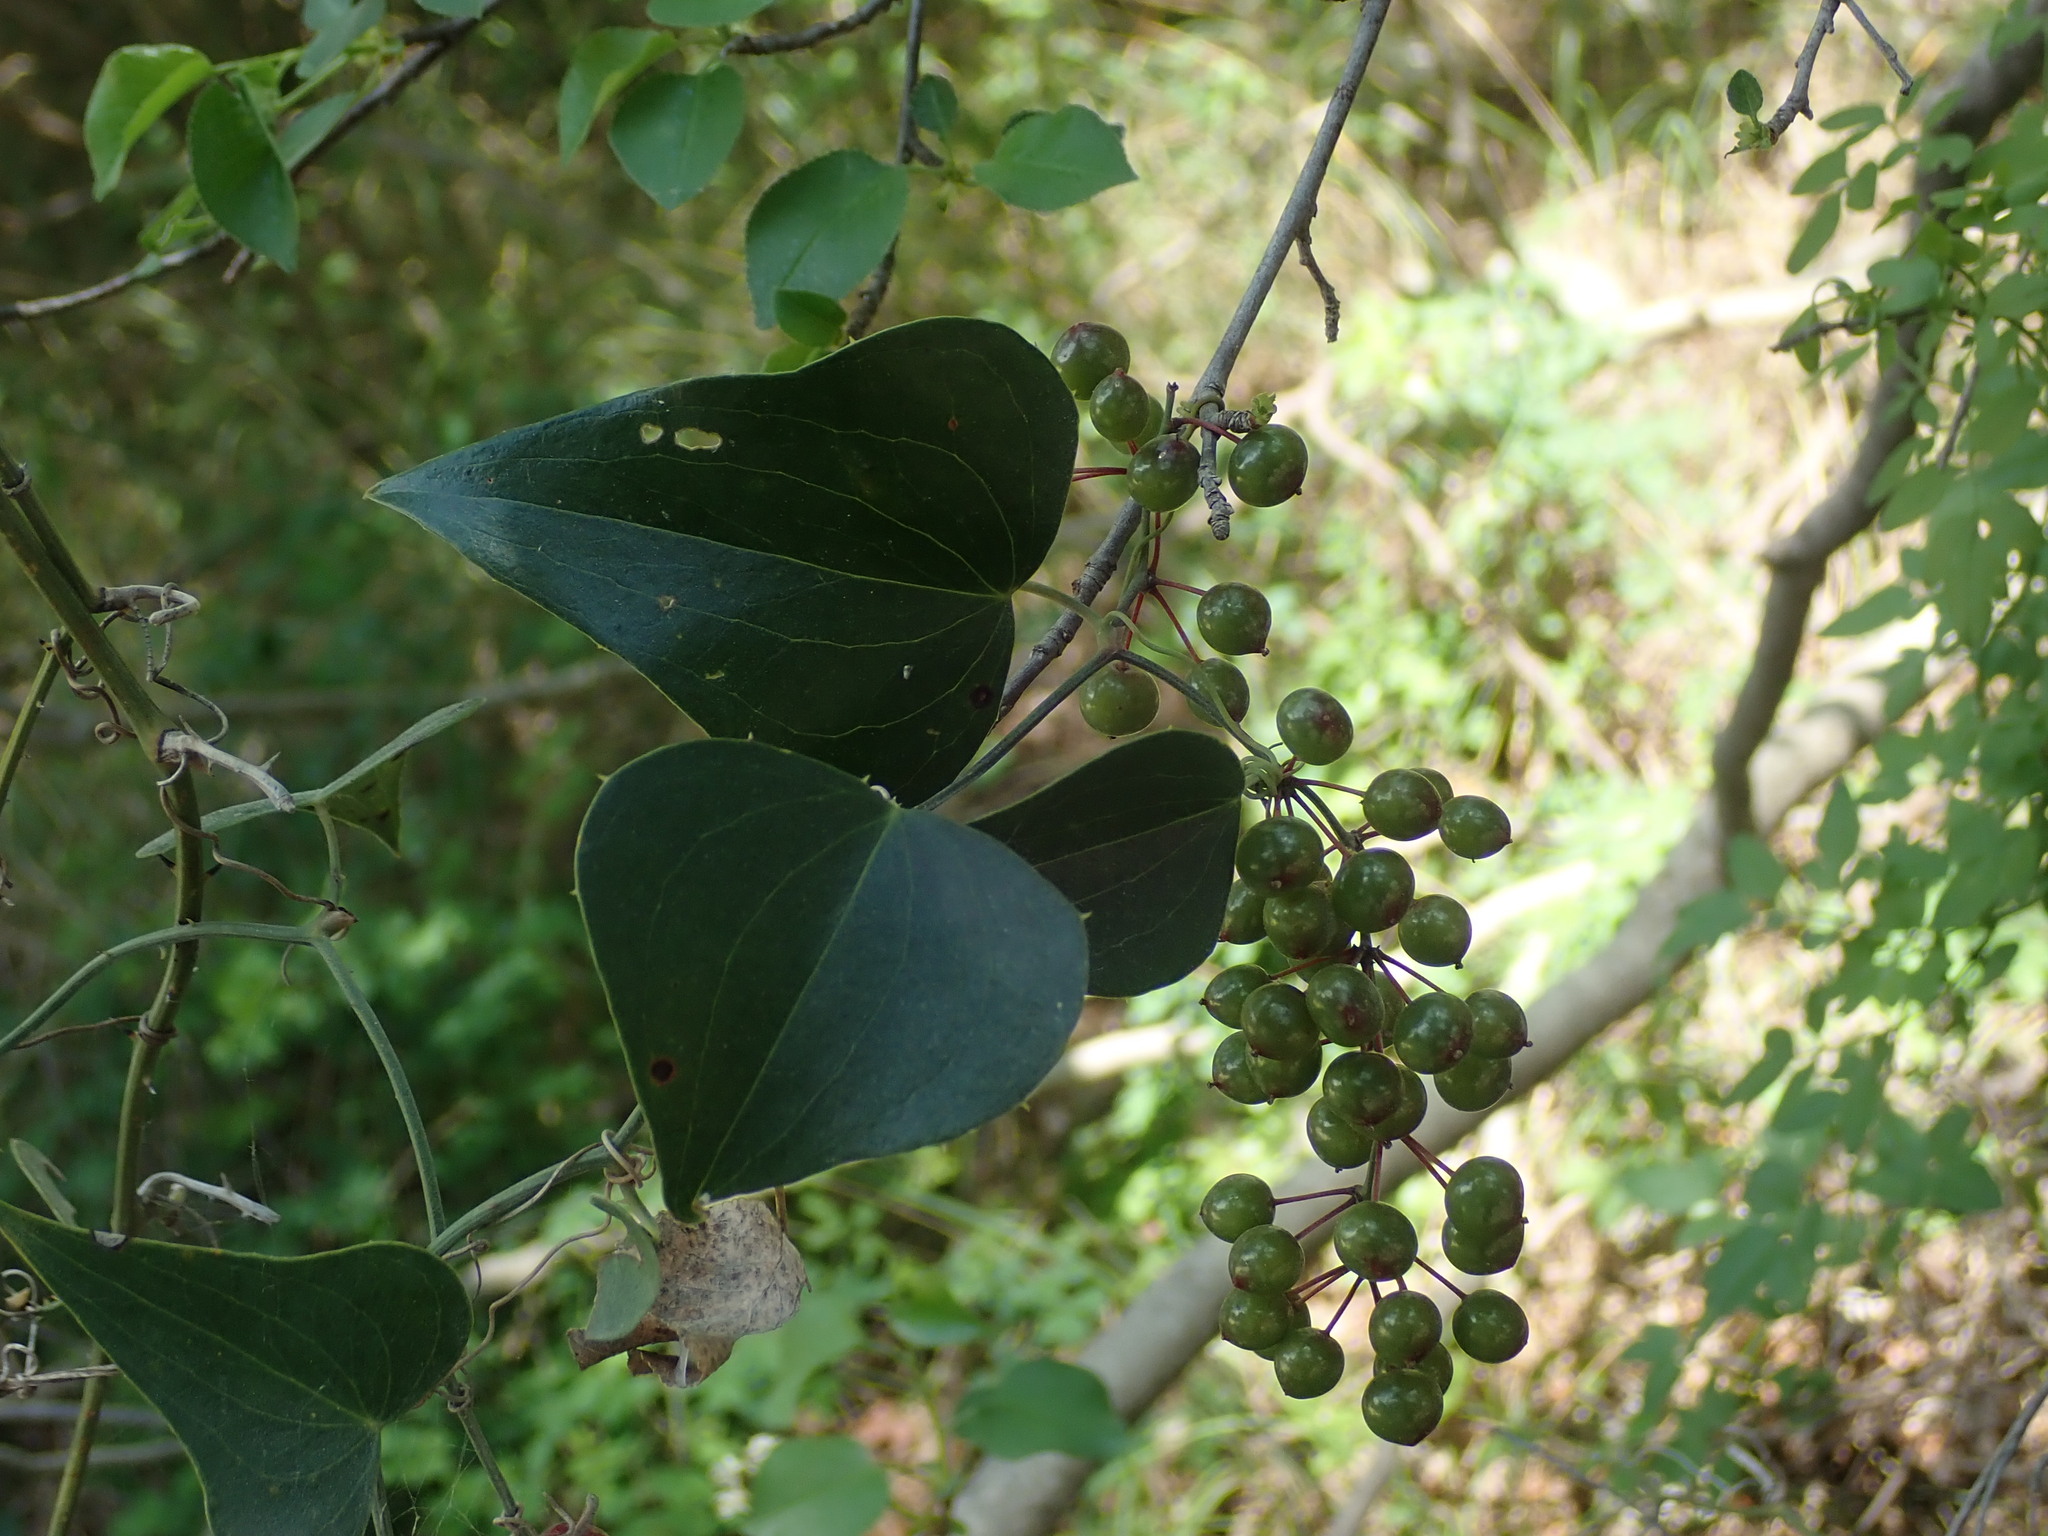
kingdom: Plantae
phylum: Tracheophyta
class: Liliopsida
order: Liliales
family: Smilacaceae
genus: Smilax
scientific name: Smilax aspera
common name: Common smilax
